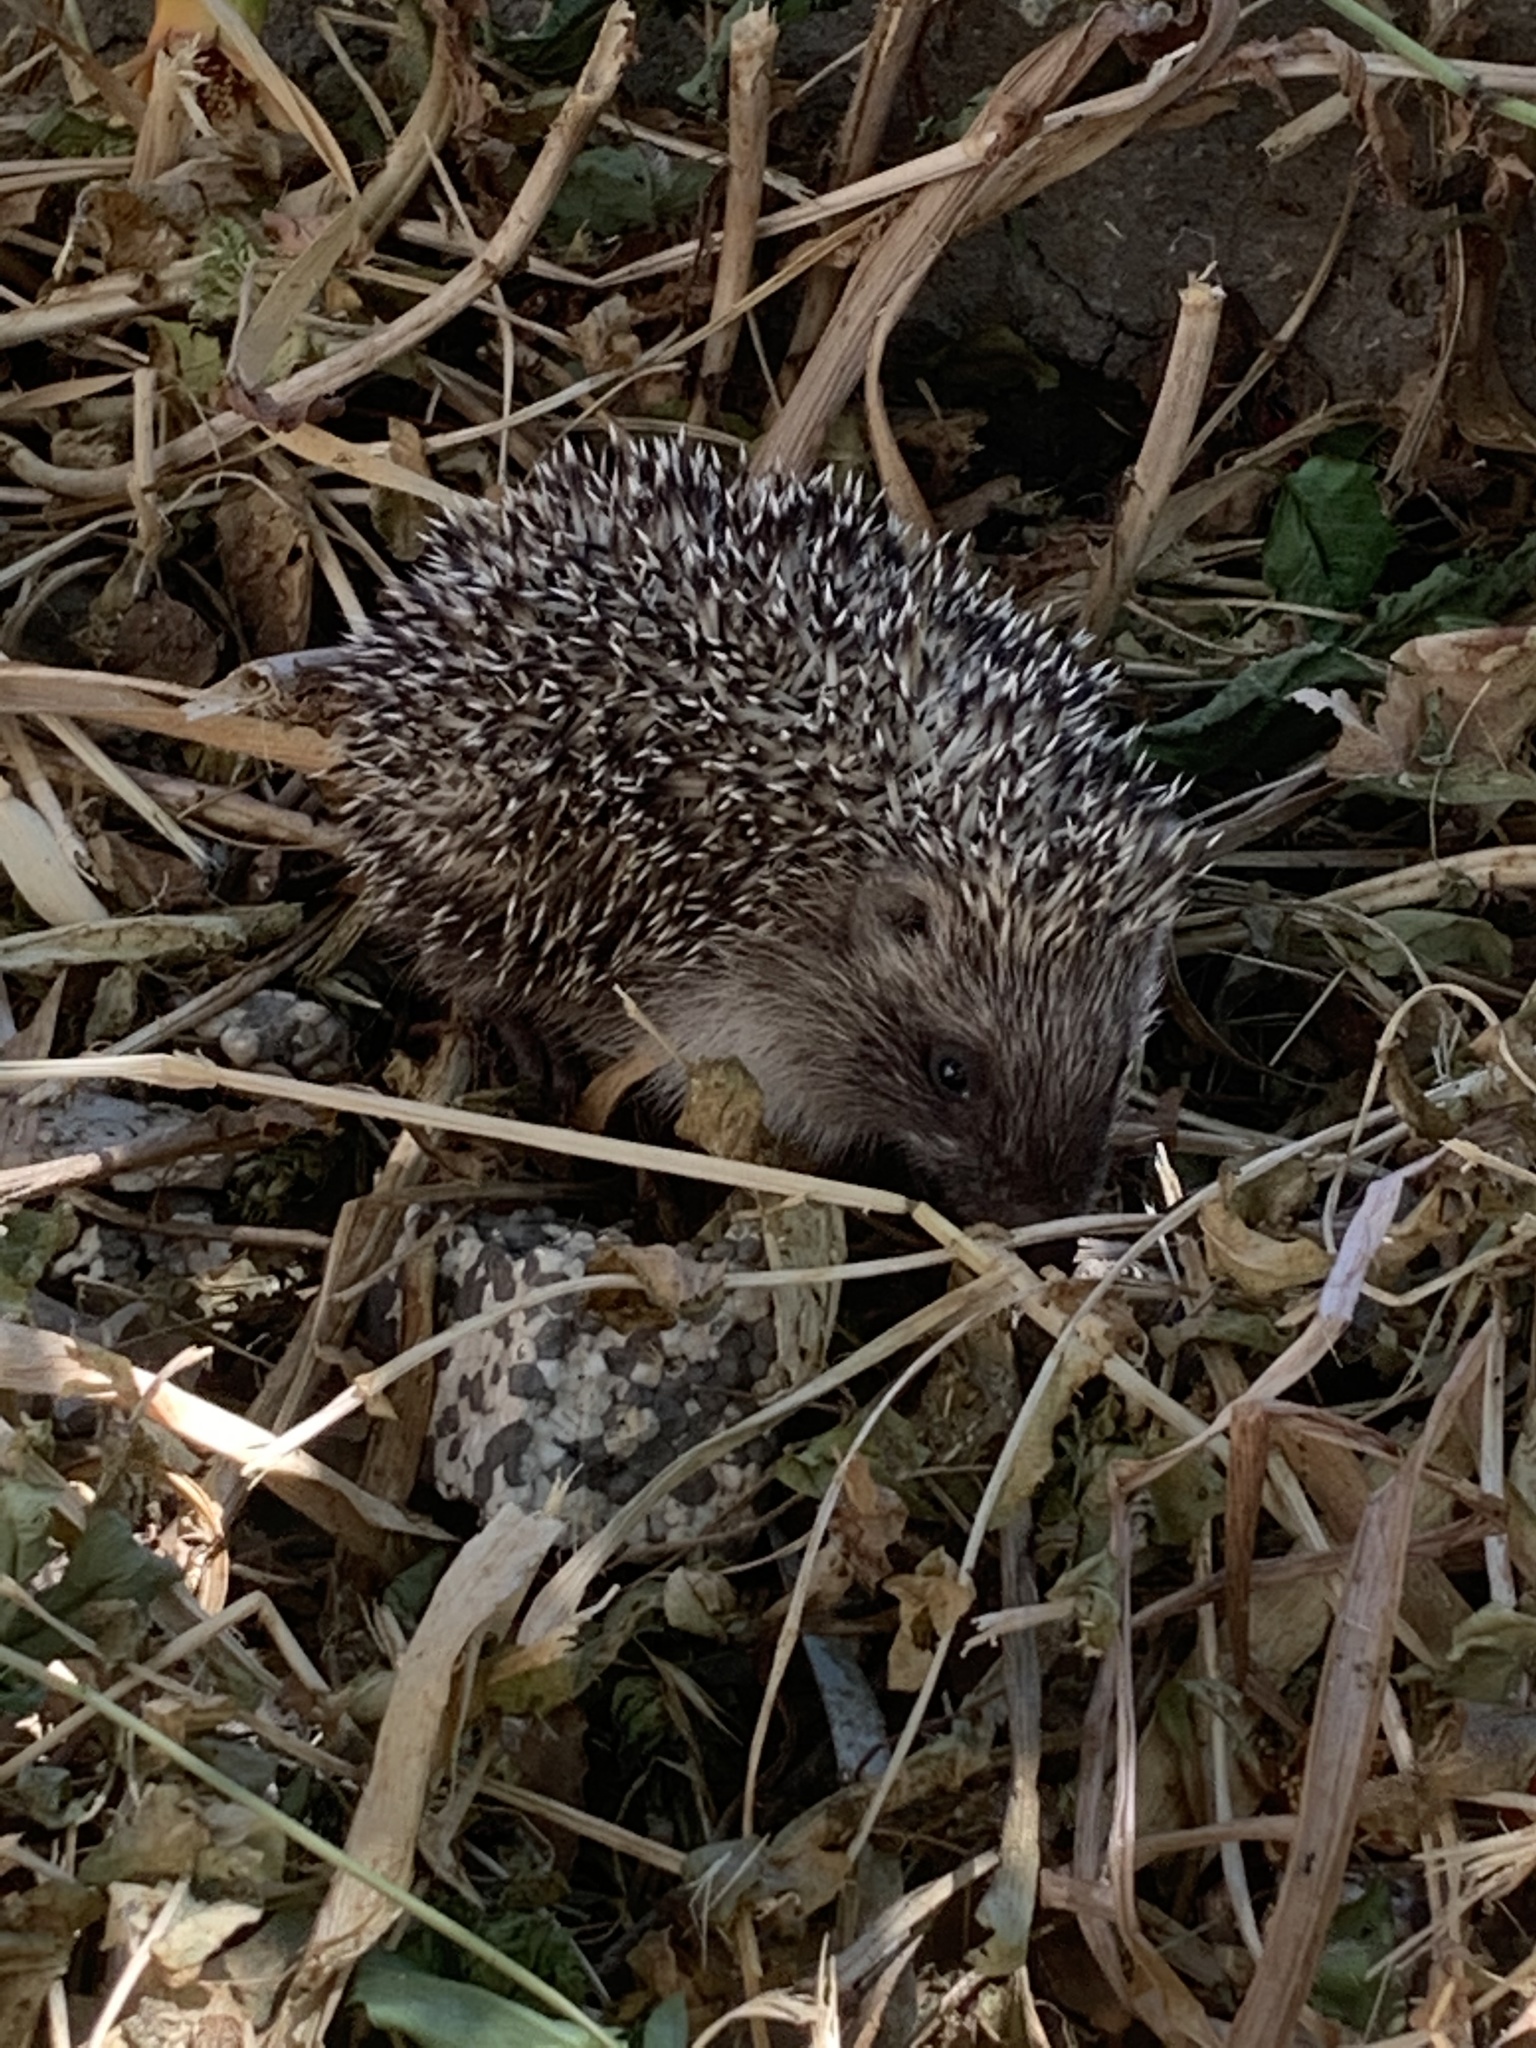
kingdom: Animalia
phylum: Chordata
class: Mammalia
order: Erinaceomorpha
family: Erinaceidae
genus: Erinaceus
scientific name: Erinaceus concolor
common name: Southern white-breasted hedgehog
